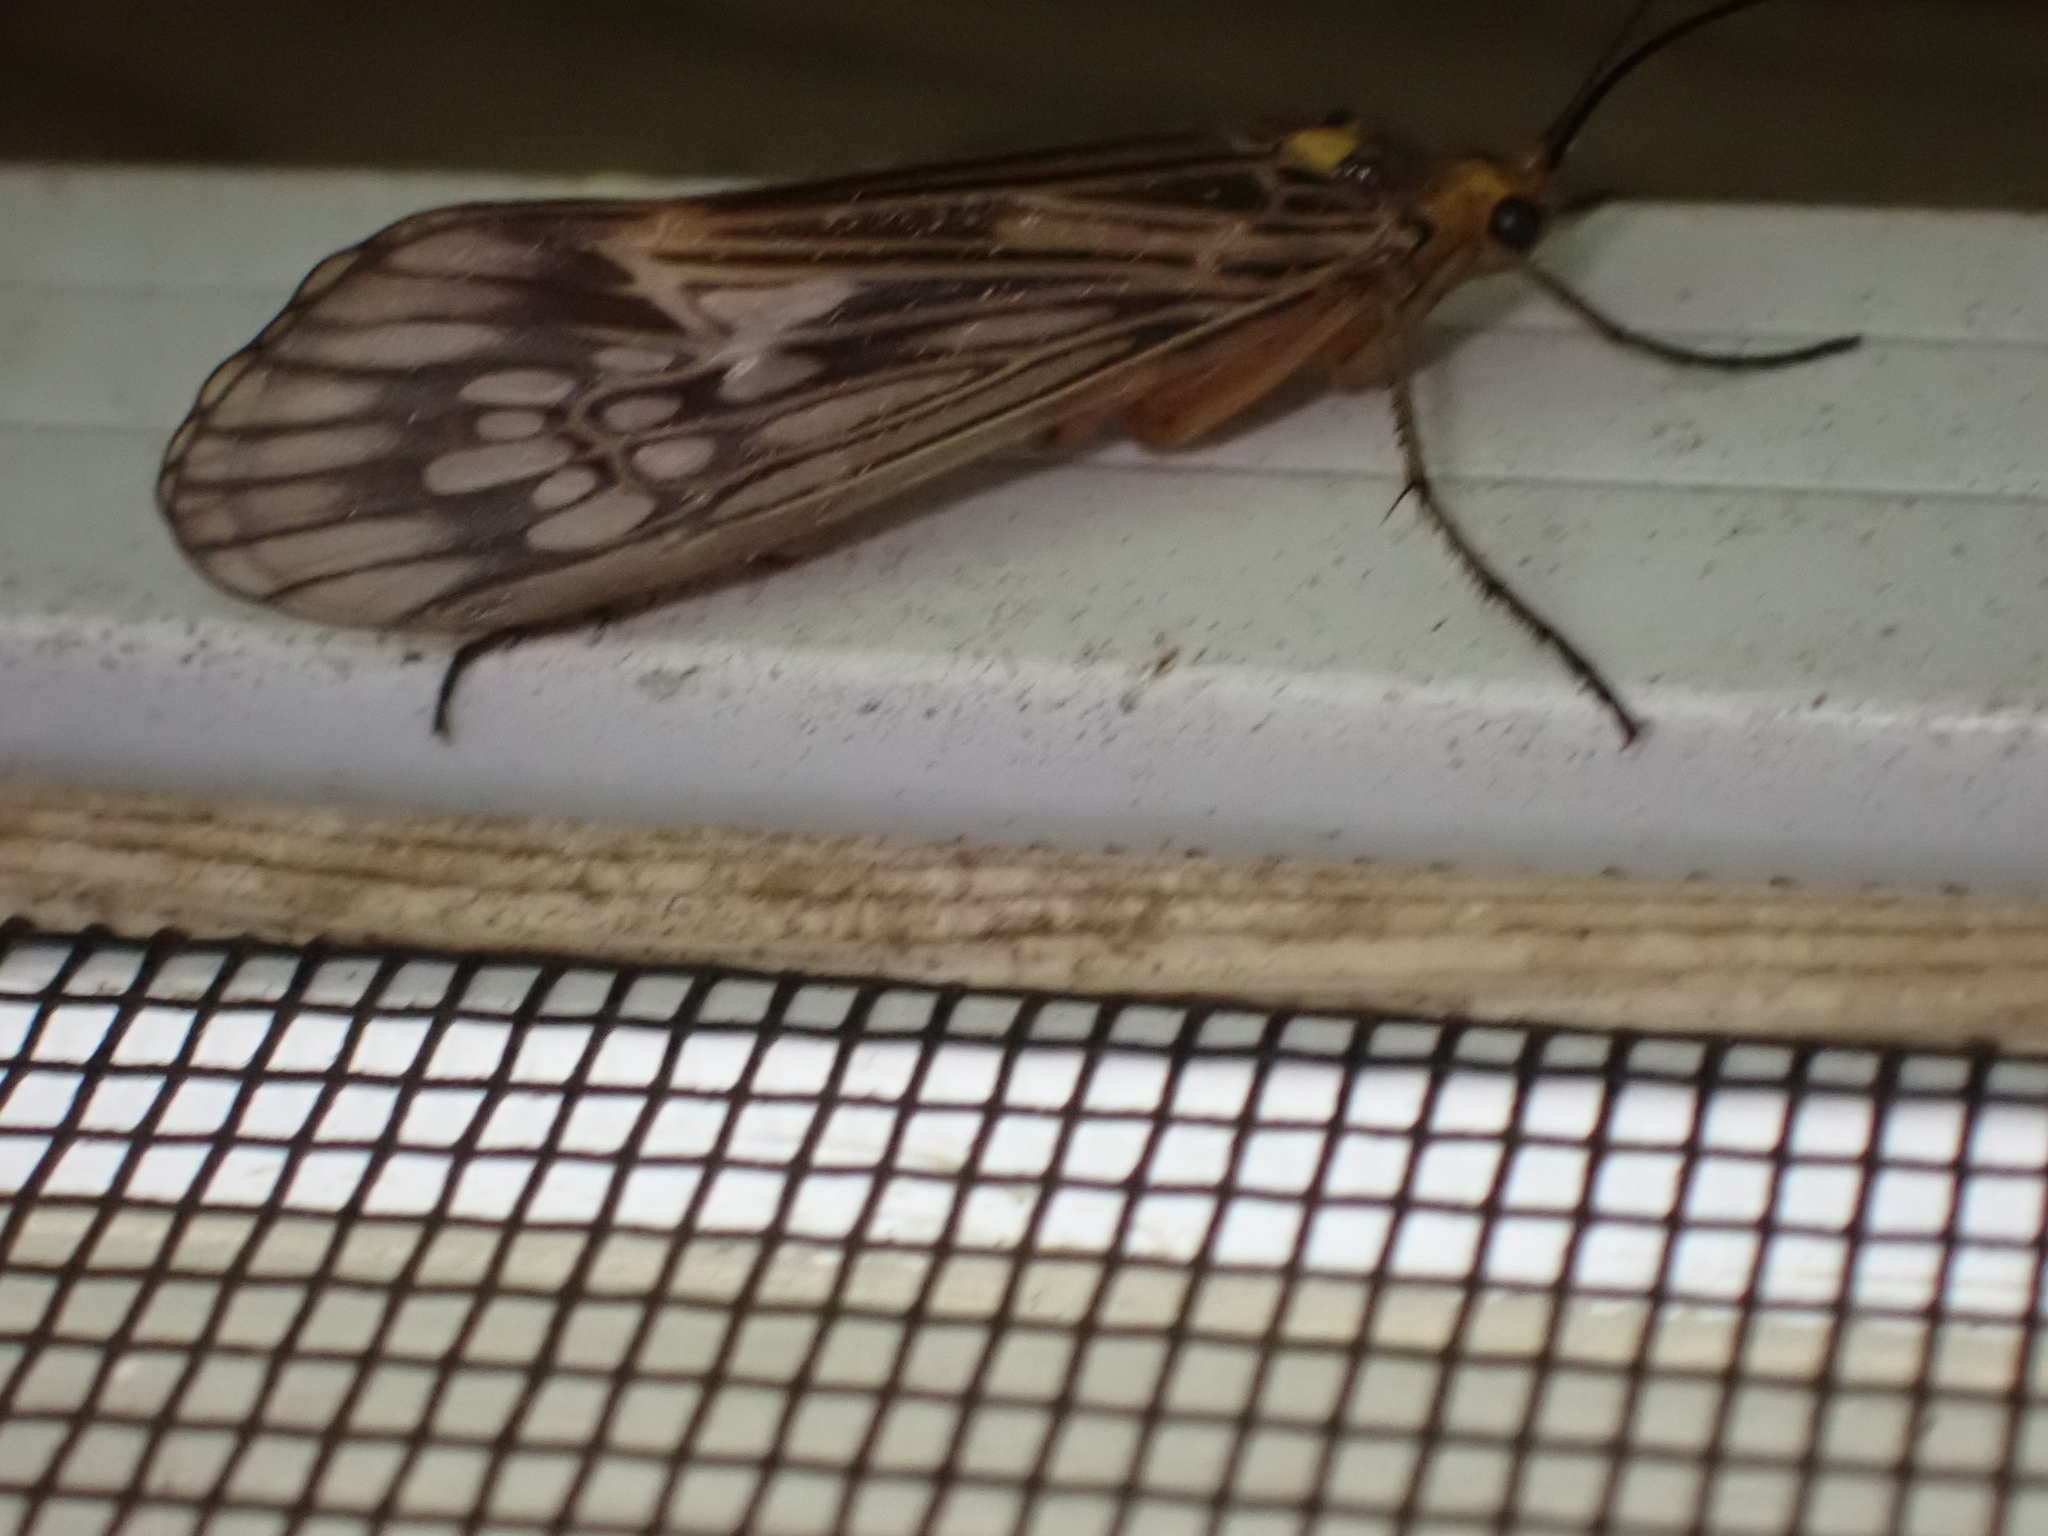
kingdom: Animalia
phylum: Arthropoda
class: Insecta
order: Trichoptera
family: Limnephilidae
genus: Hydatophylax
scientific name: Hydatophylax argus
